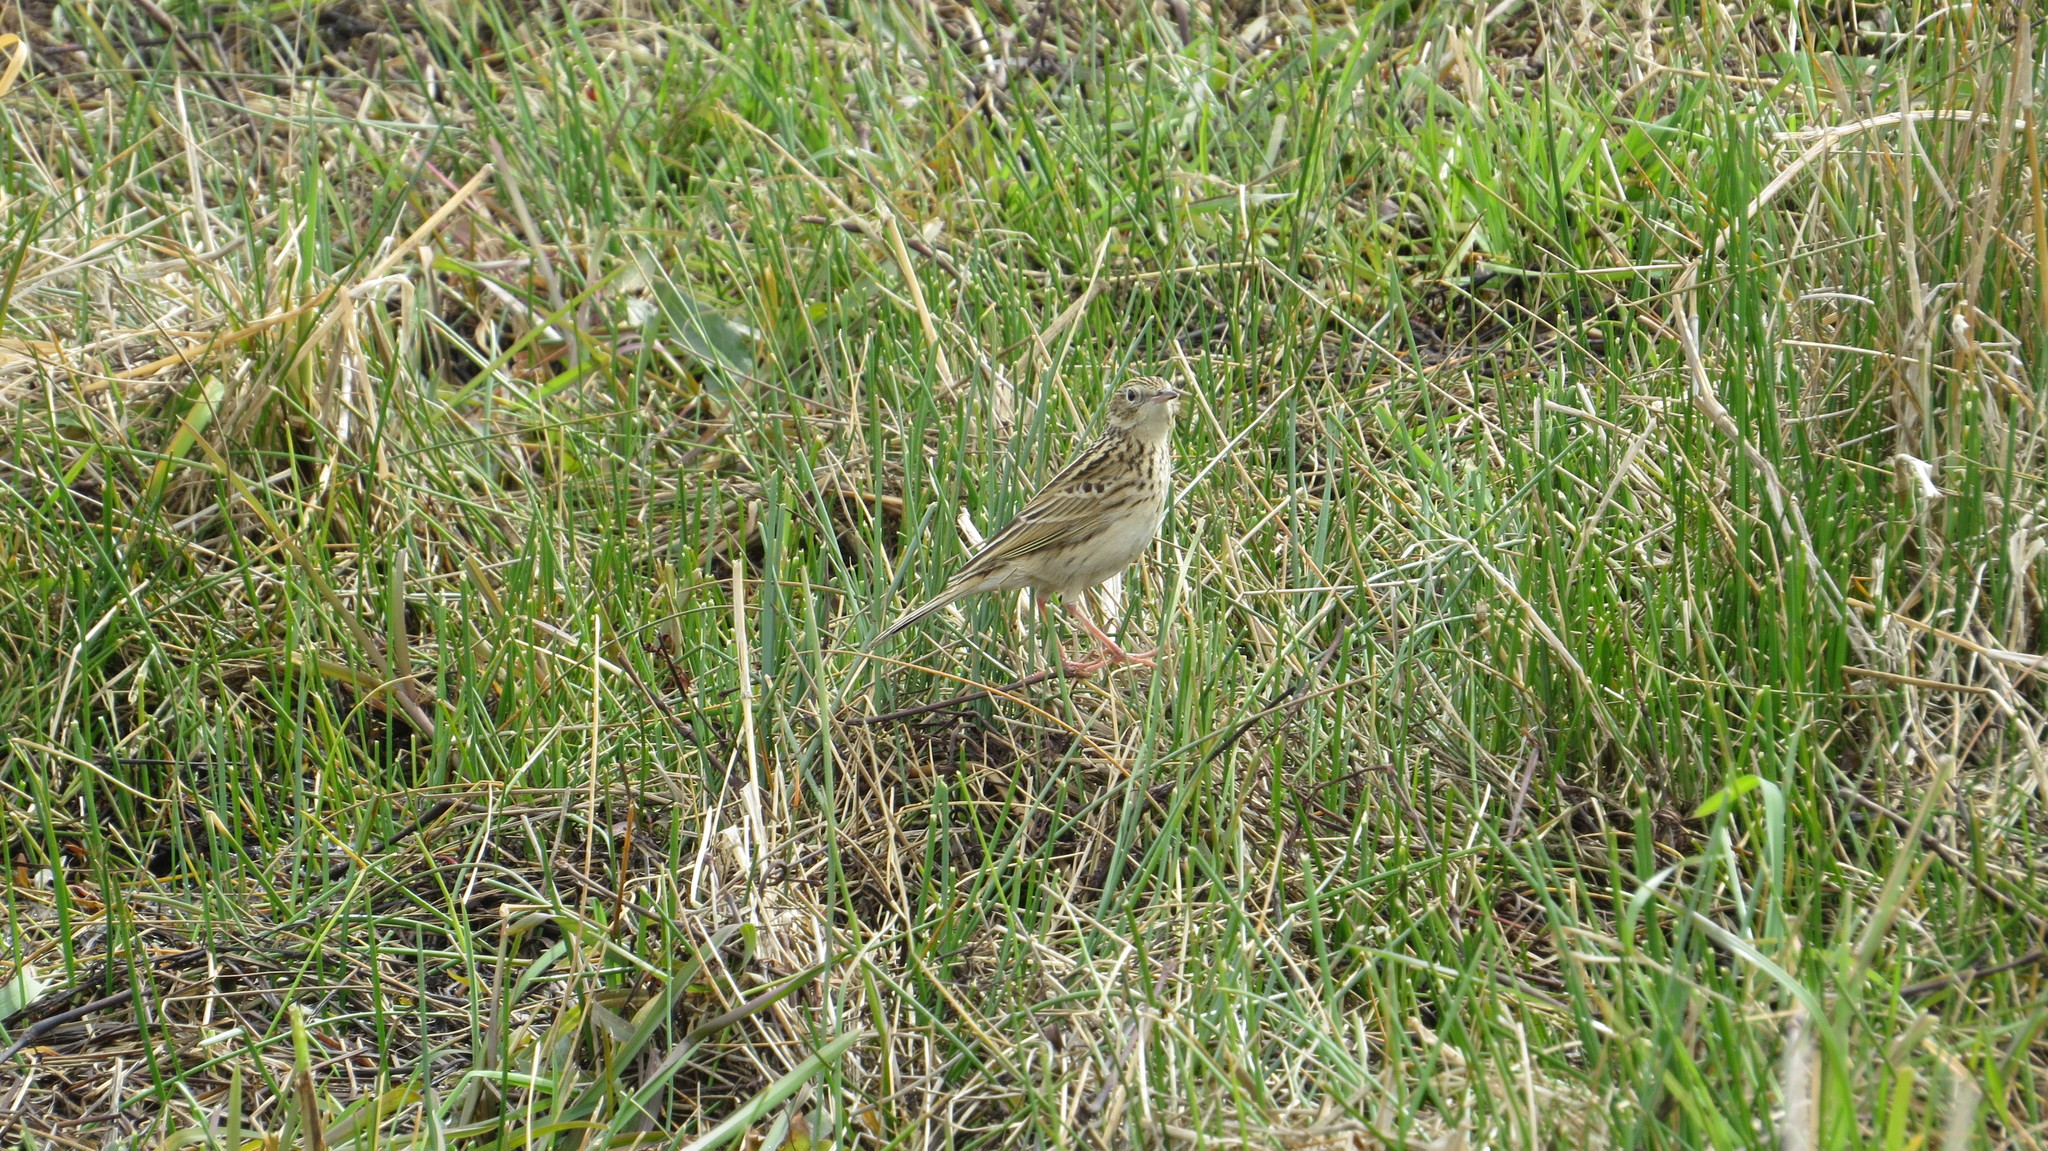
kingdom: Animalia
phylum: Chordata
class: Aves
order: Passeriformes
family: Motacillidae
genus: Anthus
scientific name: Anthus hellmayri
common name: Hellmayr's pipit
